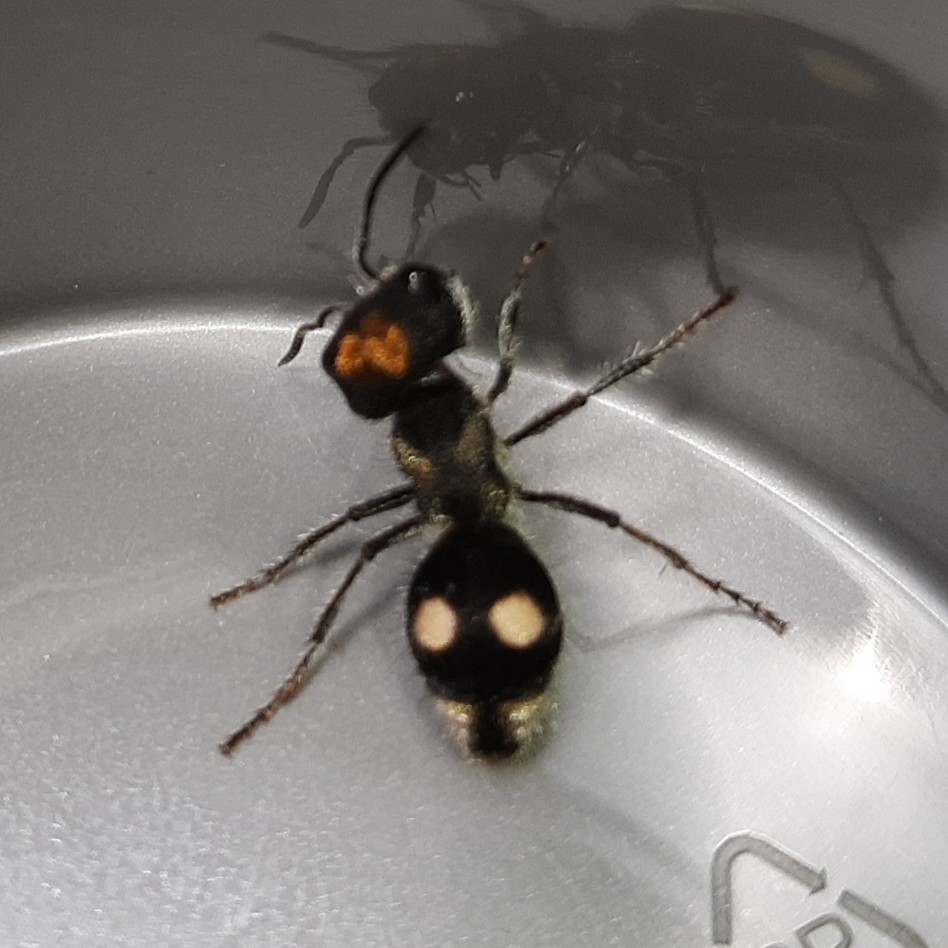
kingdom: Animalia
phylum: Arthropoda
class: Insecta
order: Hymenoptera
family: Mutillidae
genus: Hoplognathoca
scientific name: Hoplognathoca costarricensis
